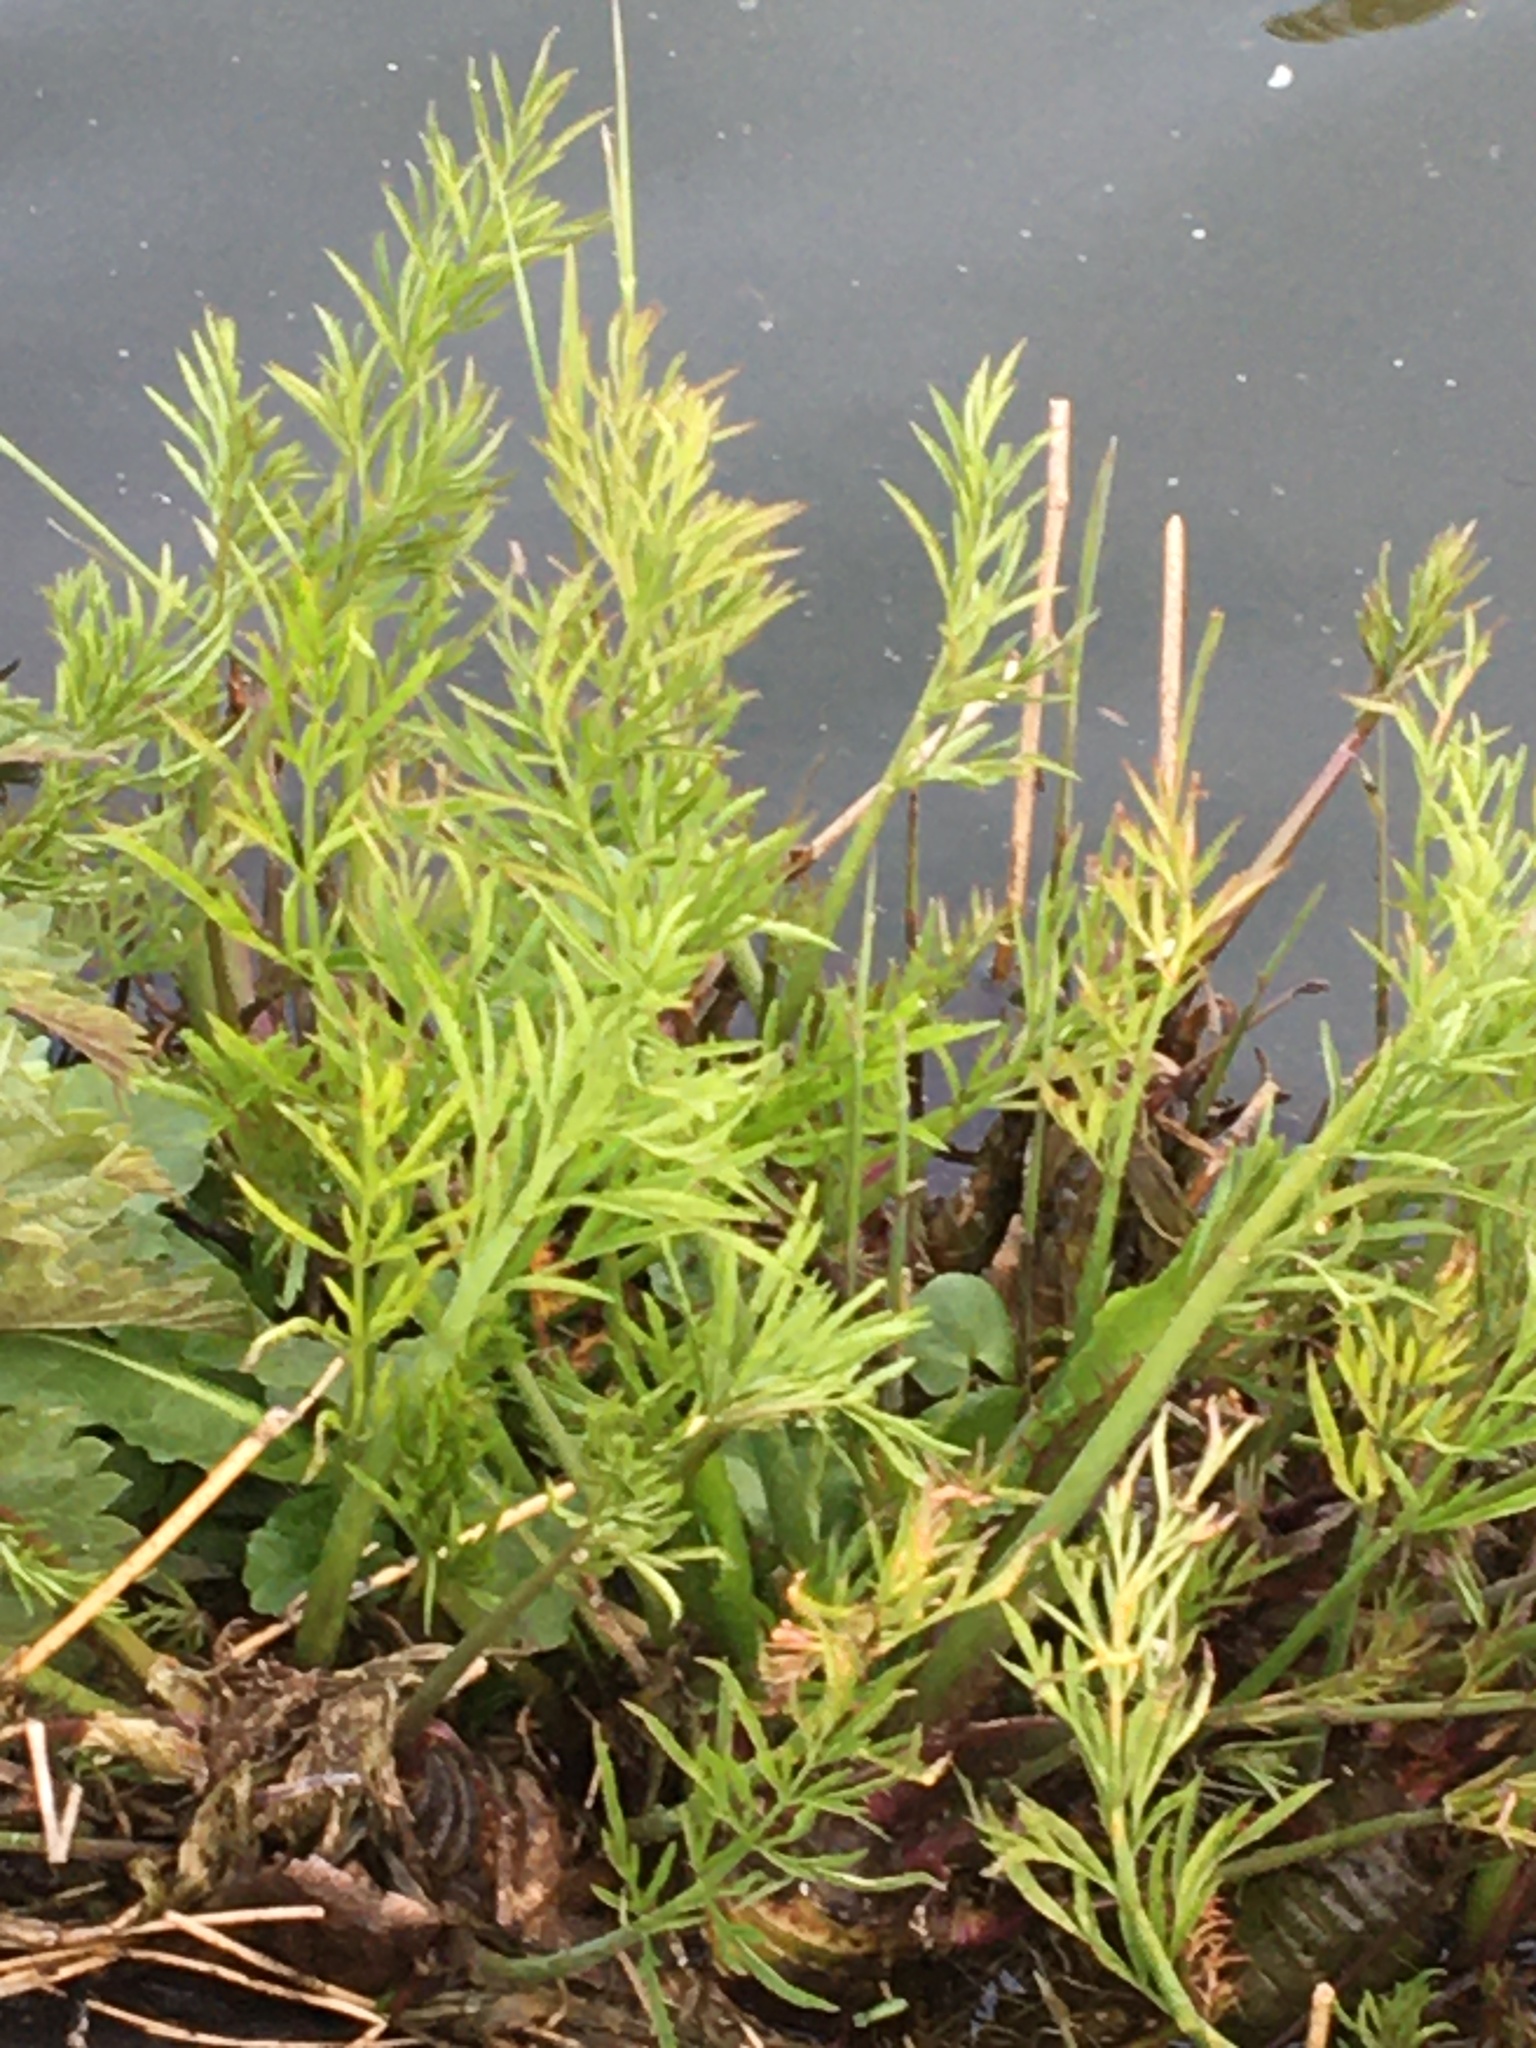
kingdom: Plantae
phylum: Tracheophyta
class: Liliopsida
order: Poales
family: Poaceae
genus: Catapodium
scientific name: Catapodium rigidum
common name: Fern-grass
